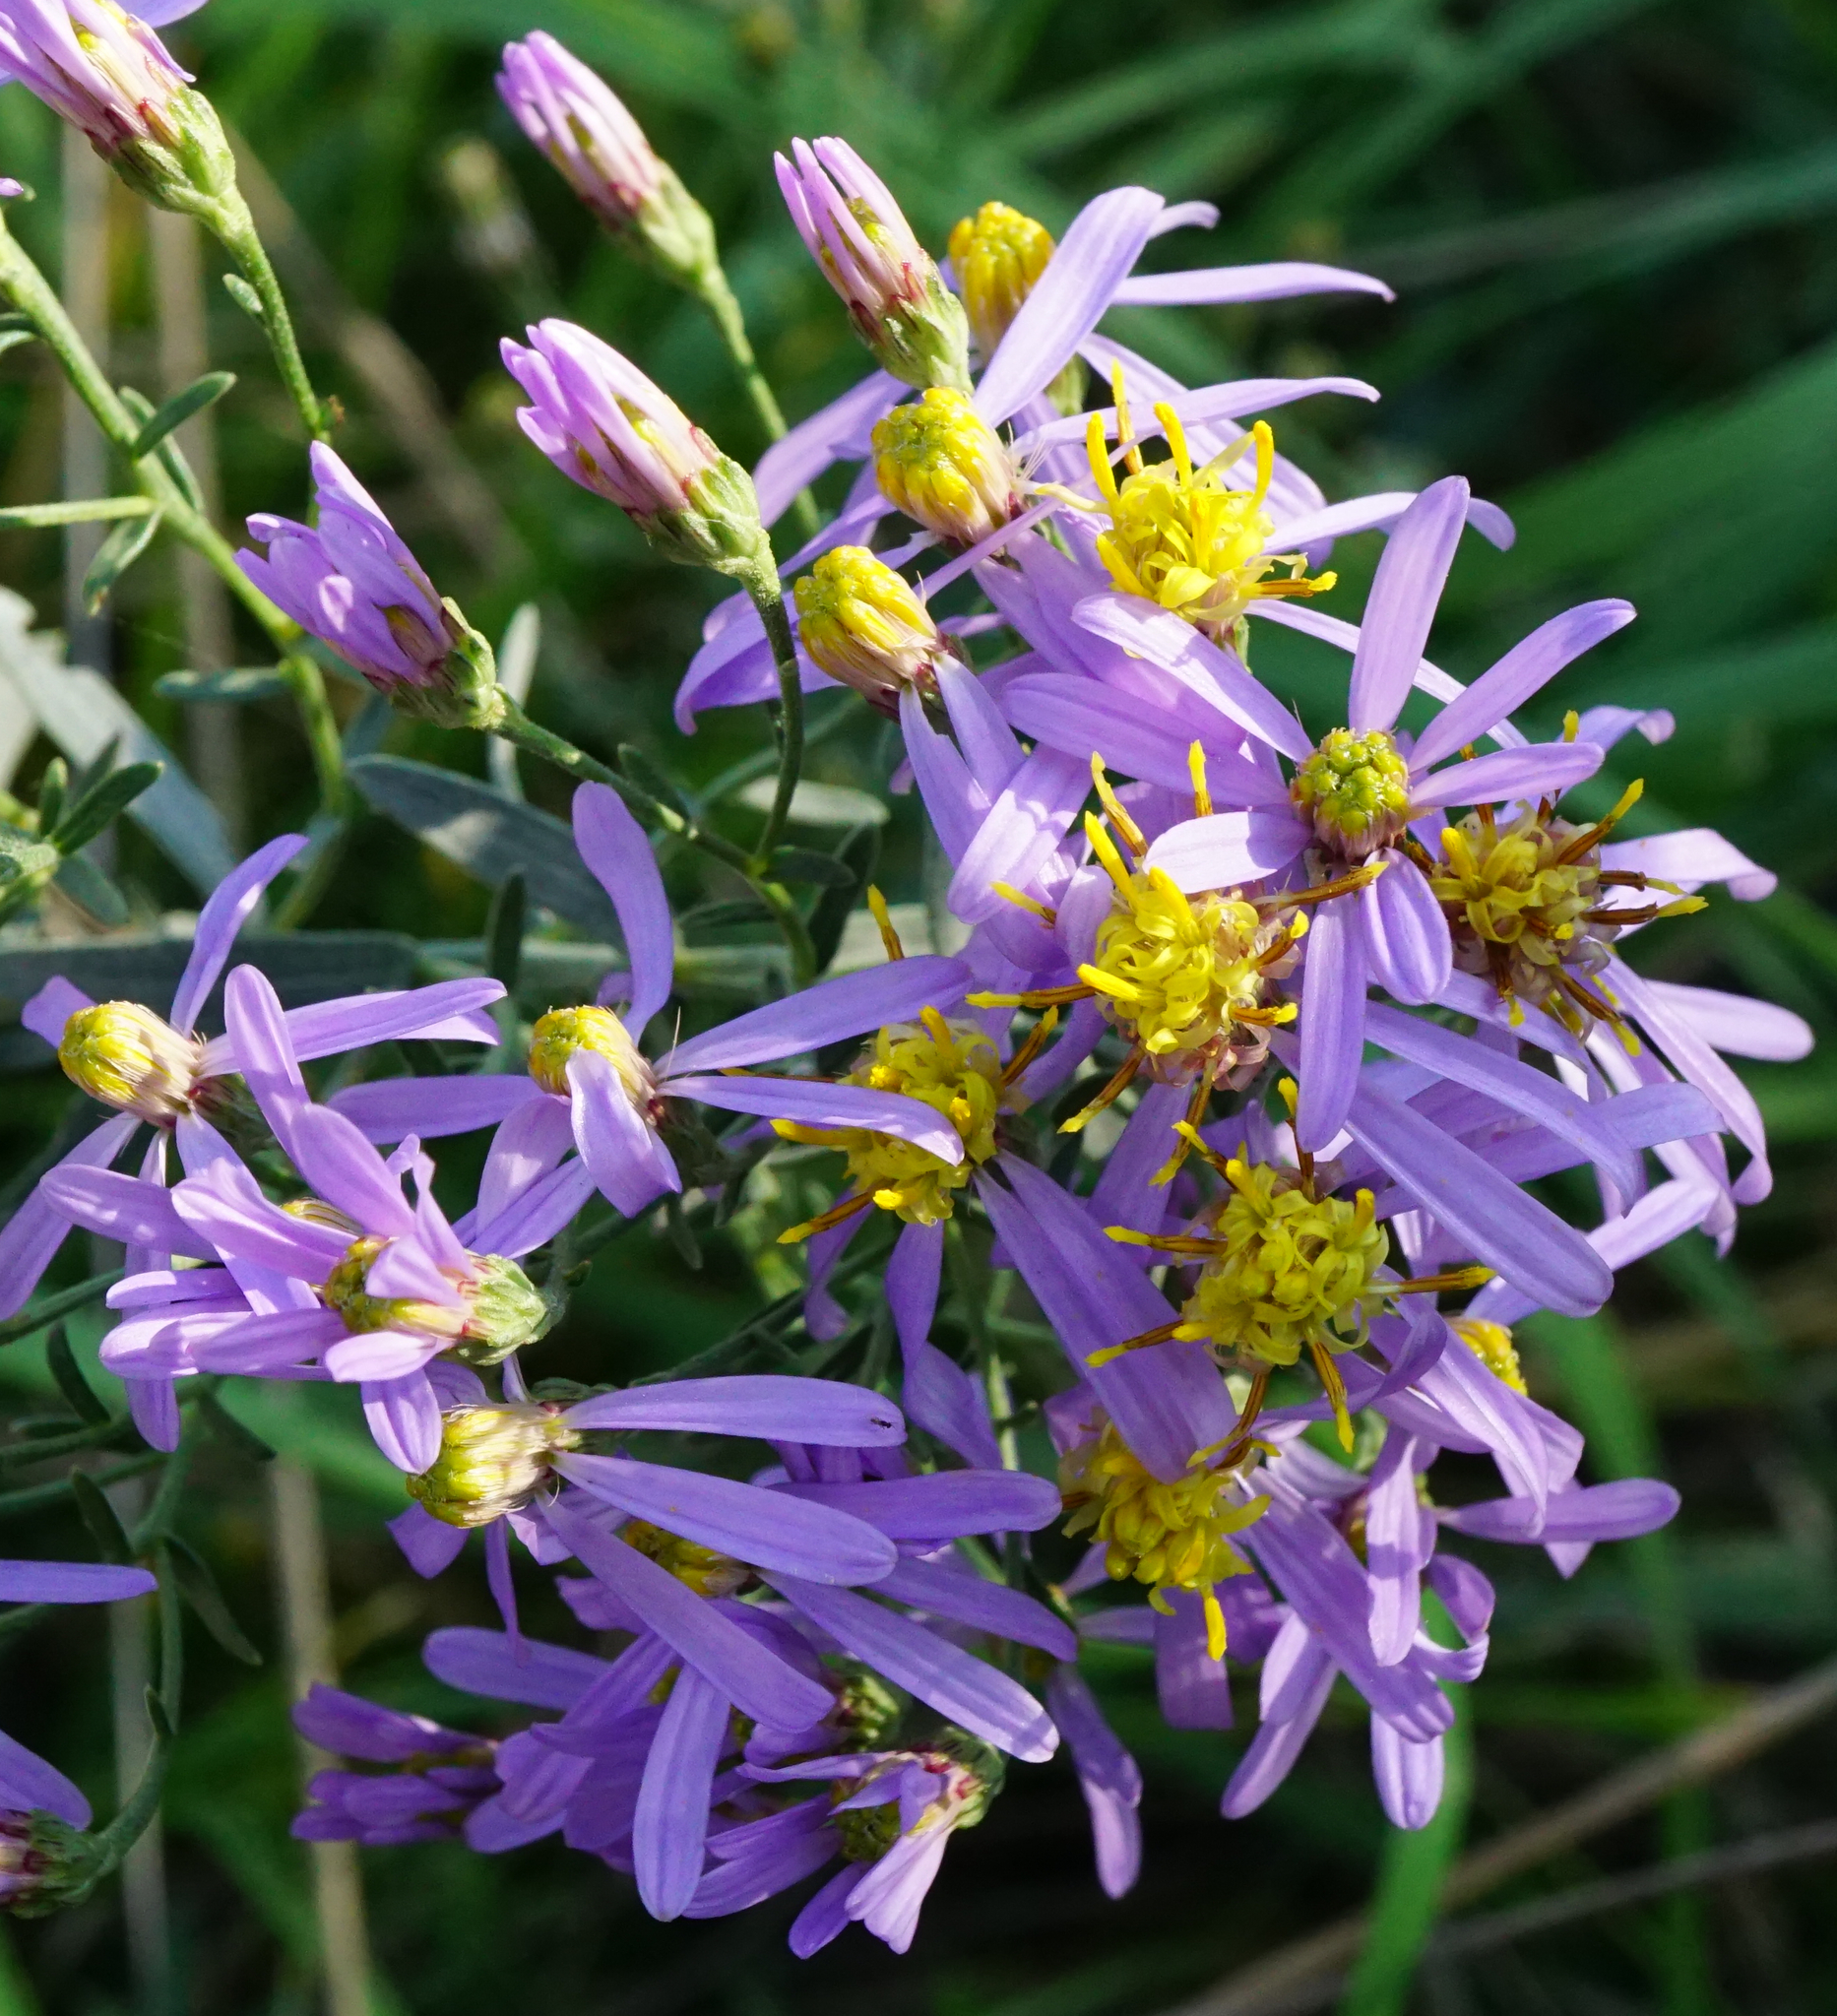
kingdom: Plantae
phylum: Tracheophyta
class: Magnoliopsida
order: Asterales
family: Asteraceae
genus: Galatella
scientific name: Galatella cana
